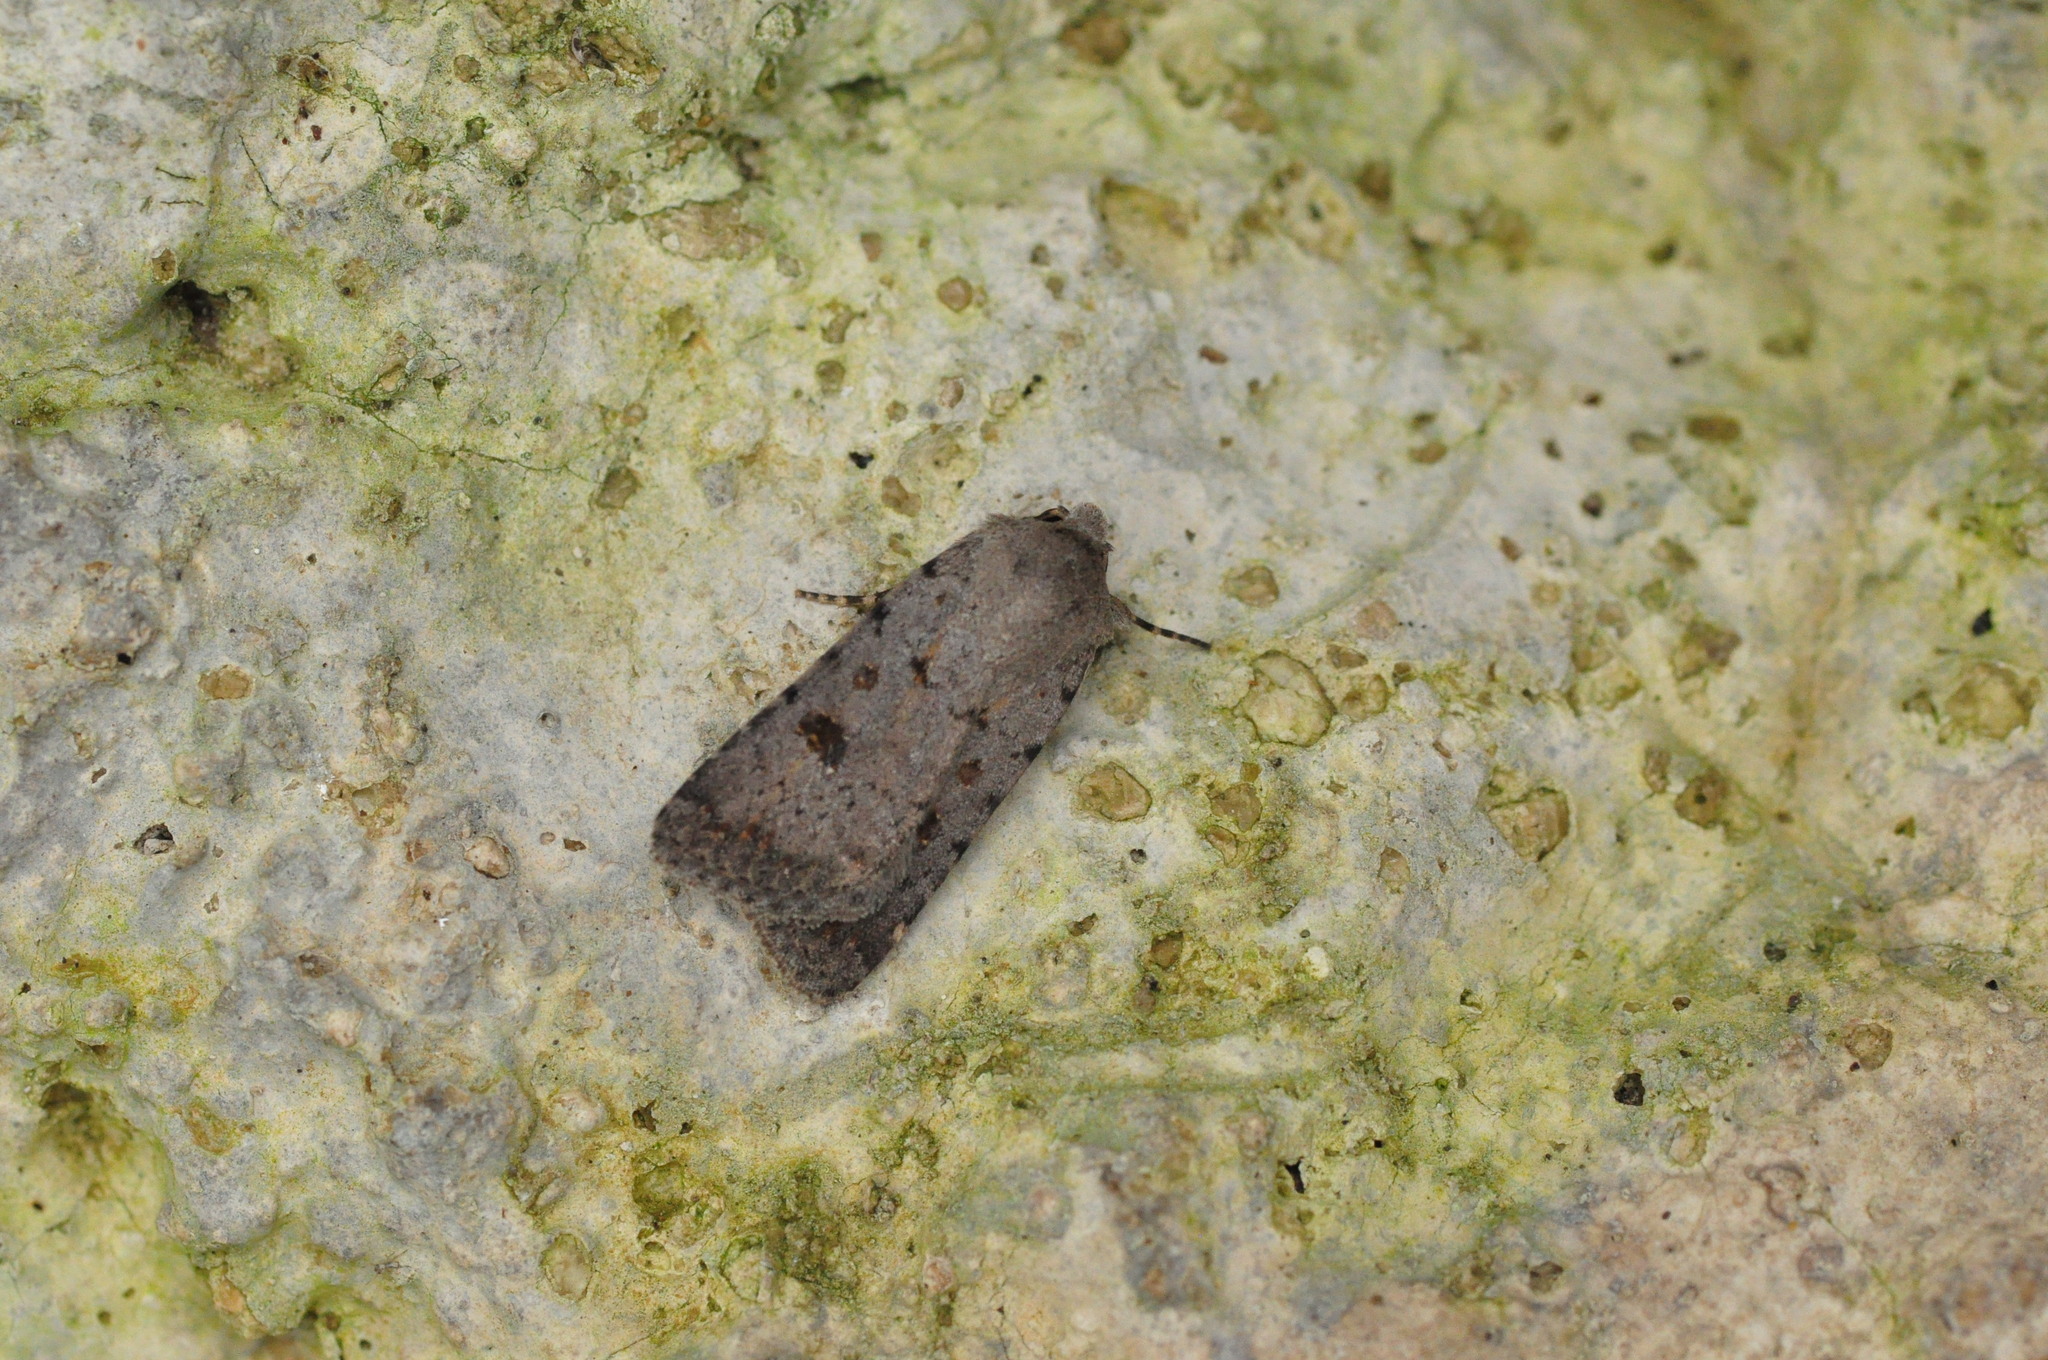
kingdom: Animalia
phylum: Arthropoda
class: Insecta
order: Lepidoptera
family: Noctuidae
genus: Caradrina
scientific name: Caradrina rebeli
